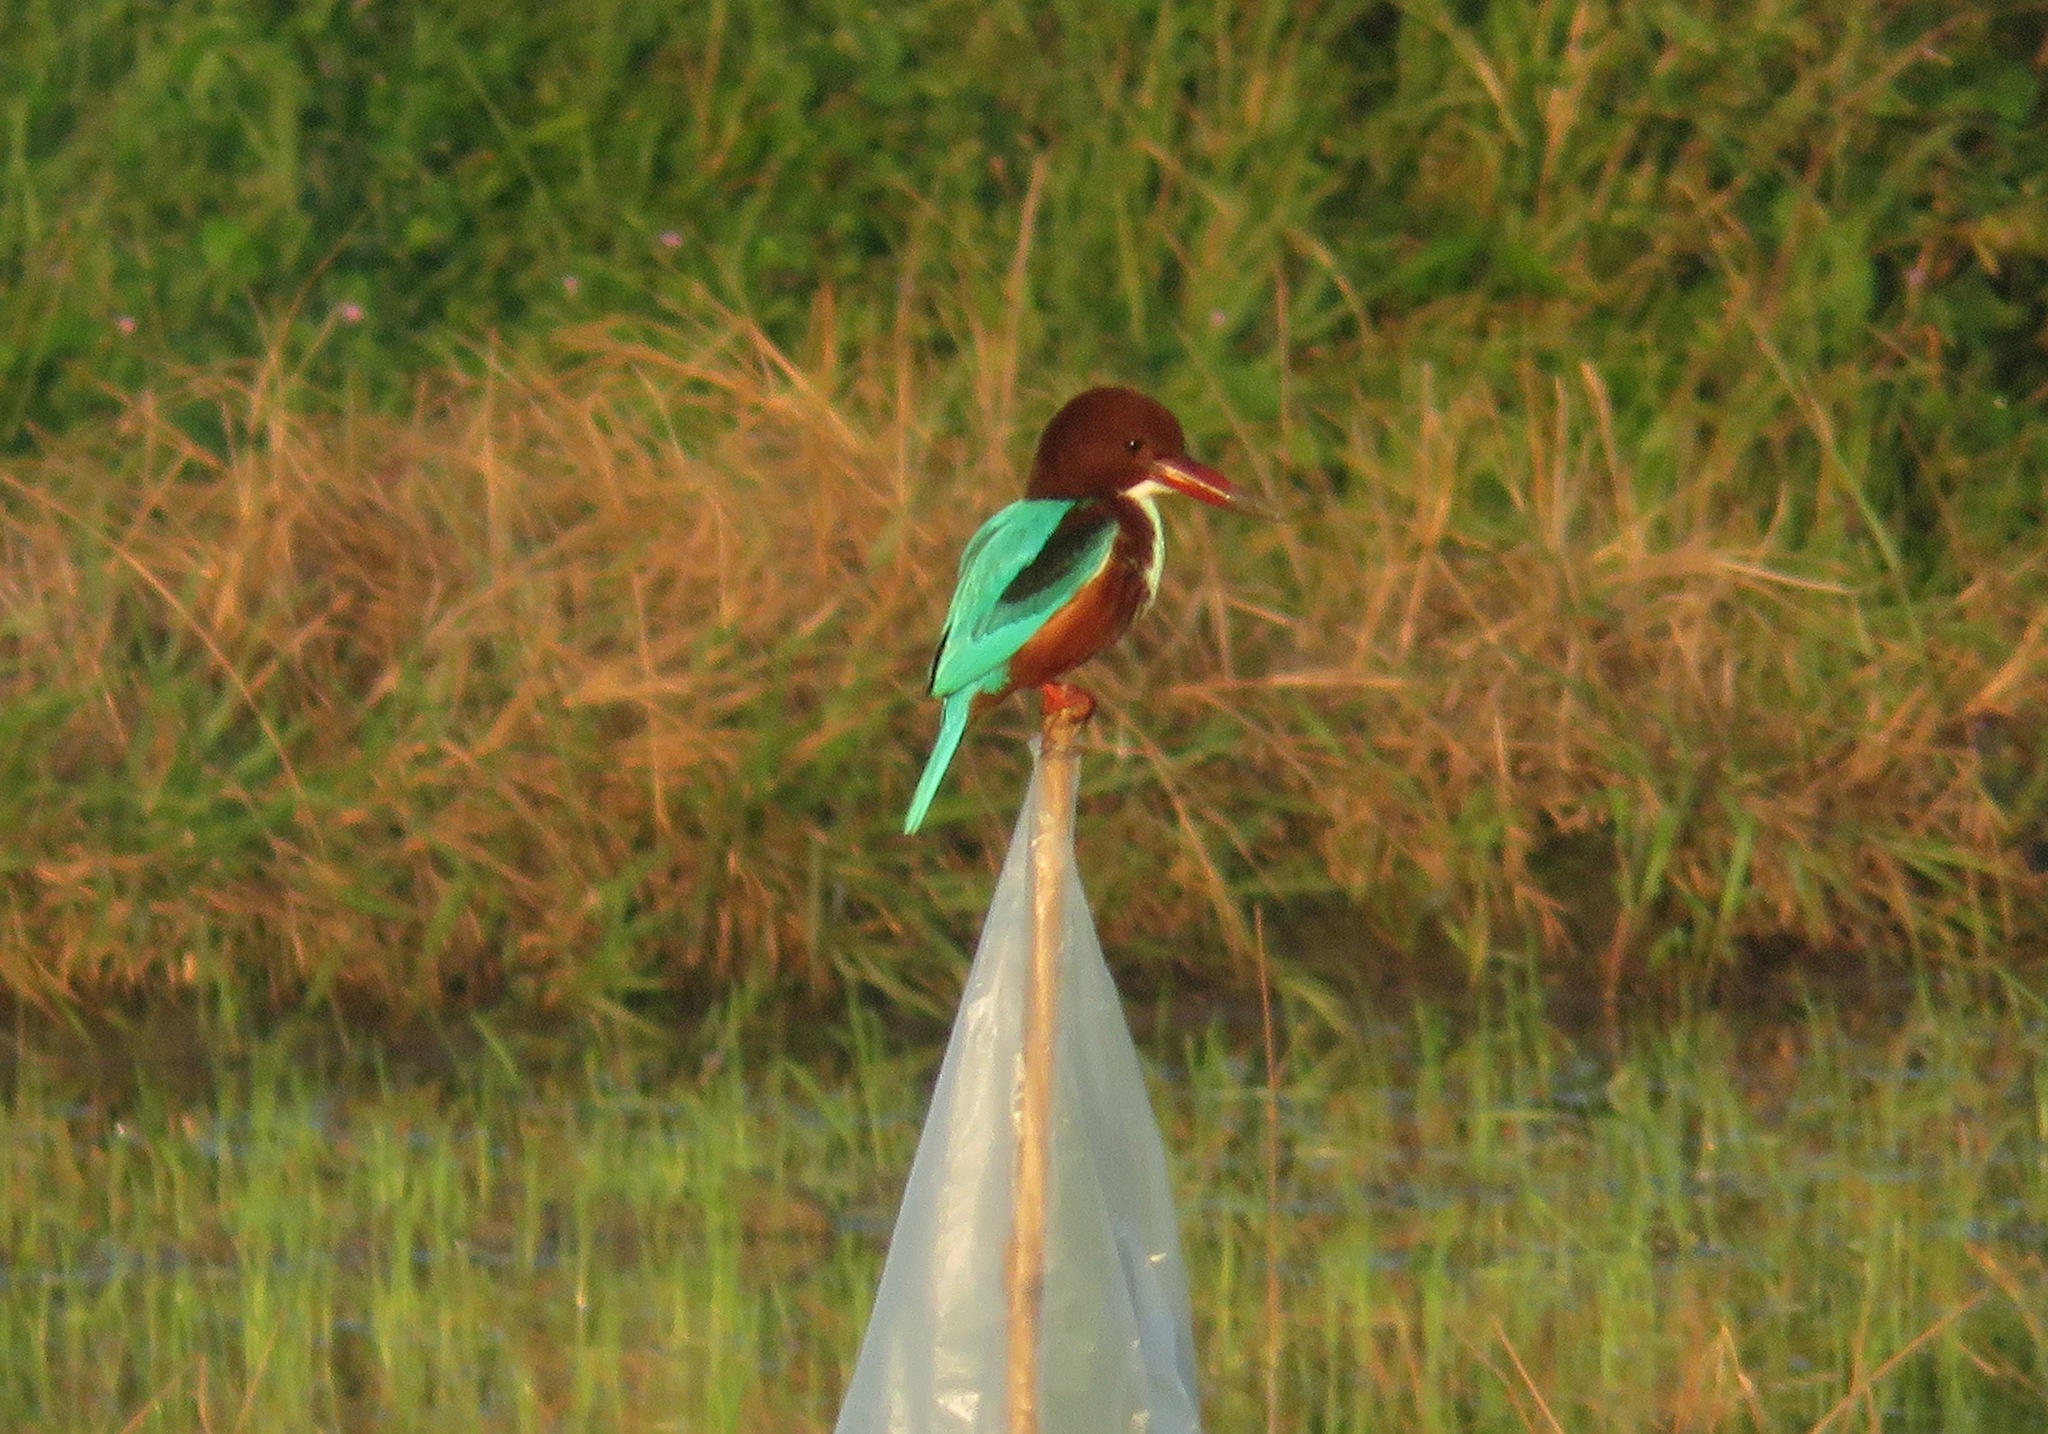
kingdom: Animalia
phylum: Chordata
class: Aves
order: Coraciiformes
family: Alcedinidae
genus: Halcyon
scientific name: Halcyon smyrnensis
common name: White-throated kingfisher
